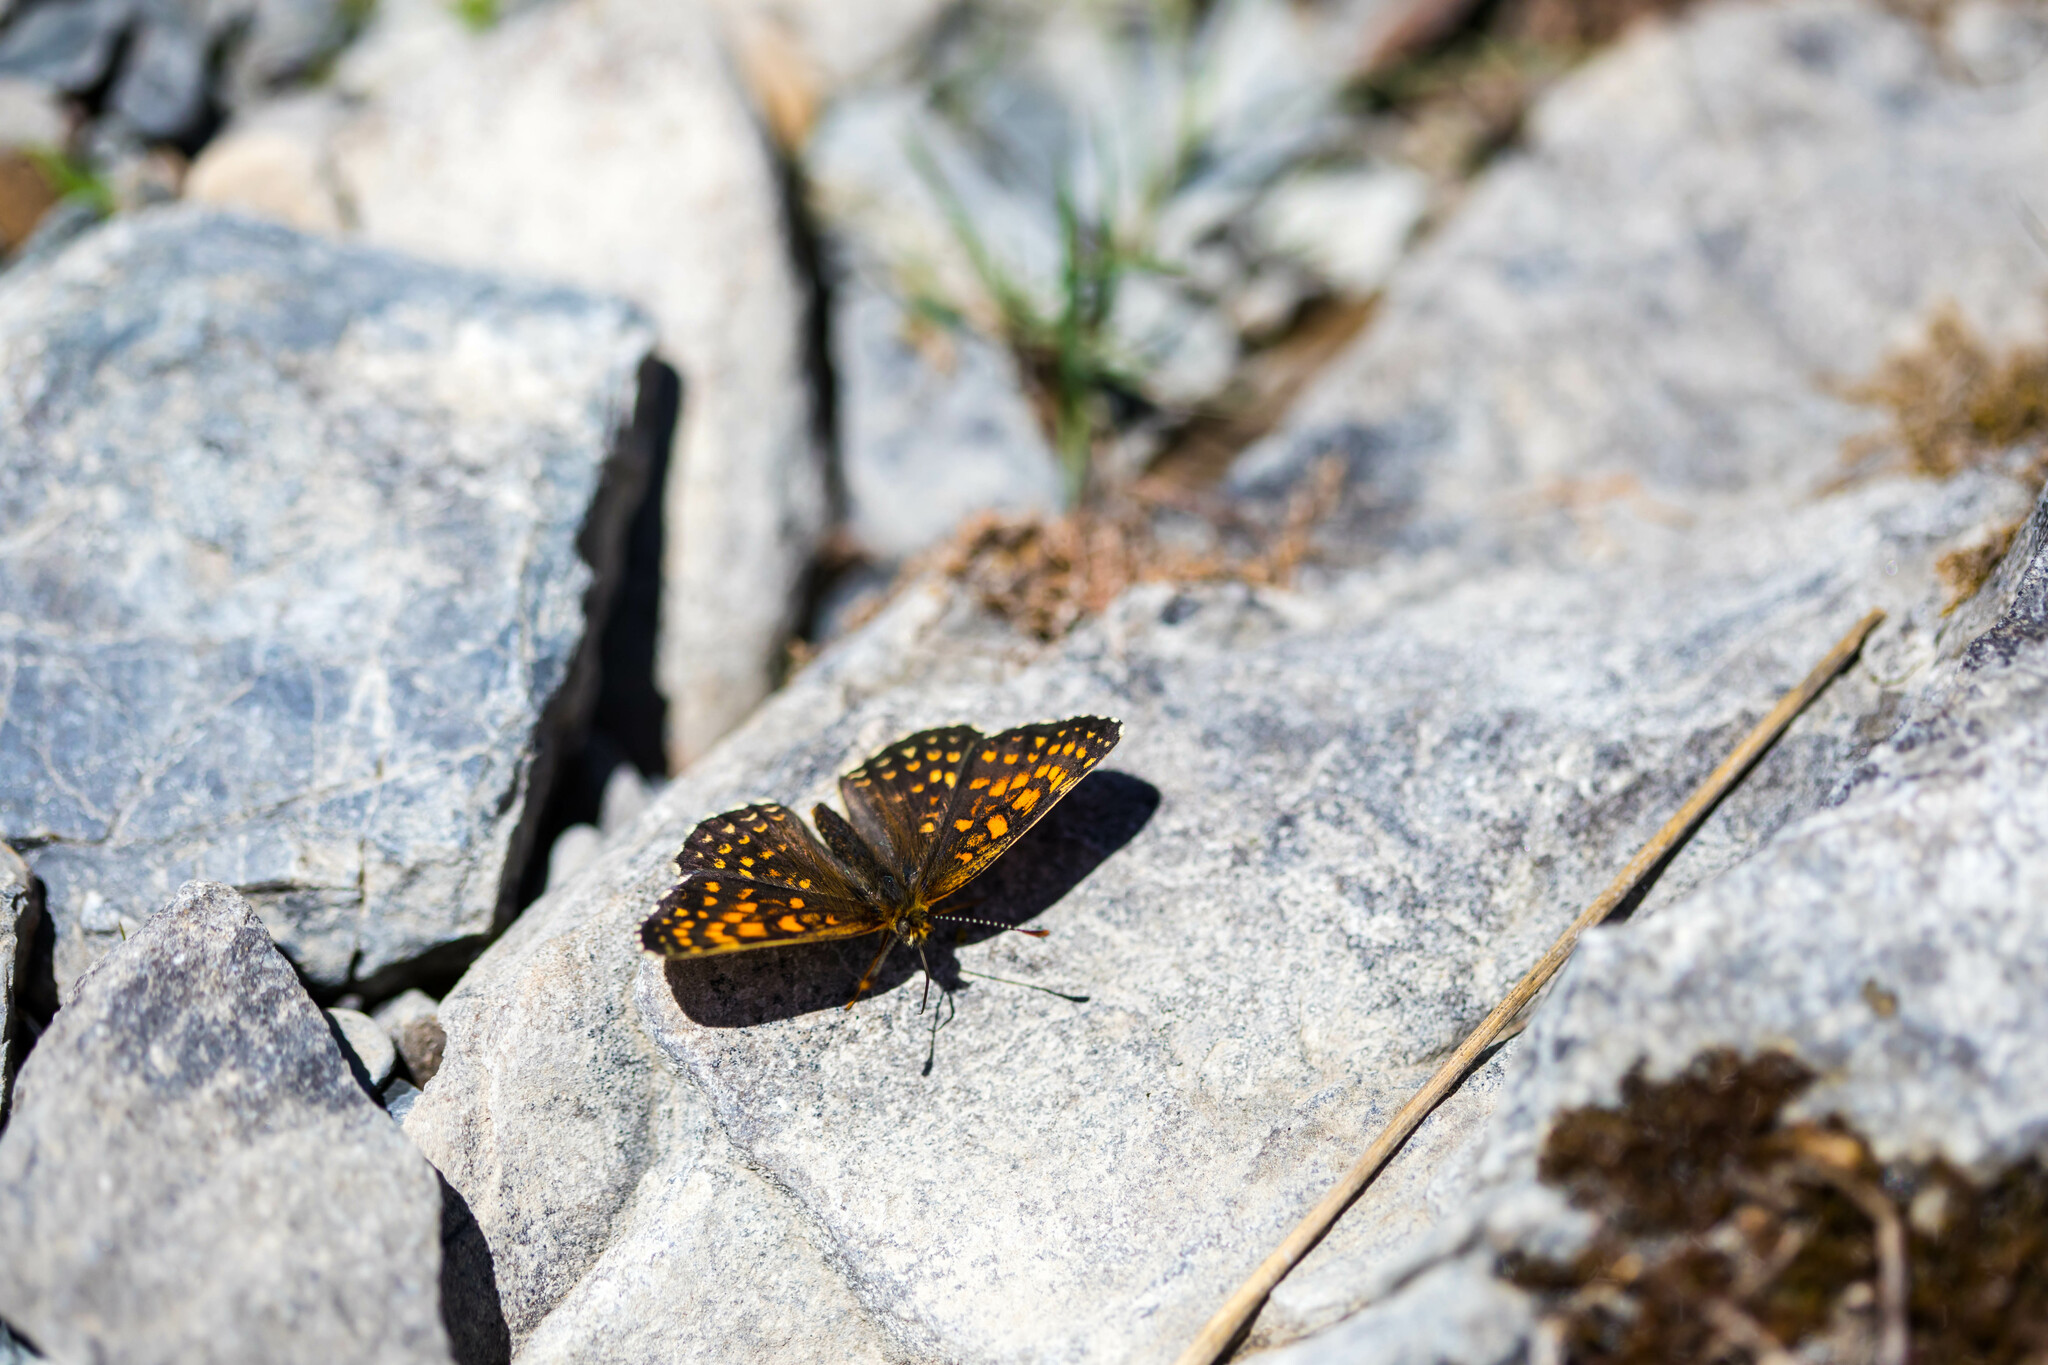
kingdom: Animalia
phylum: Arthropoda
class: Insecta
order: Lepidoptera
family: Nymphalidae
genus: Melitaea
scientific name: Melitaea diamina
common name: False heath fritillary
